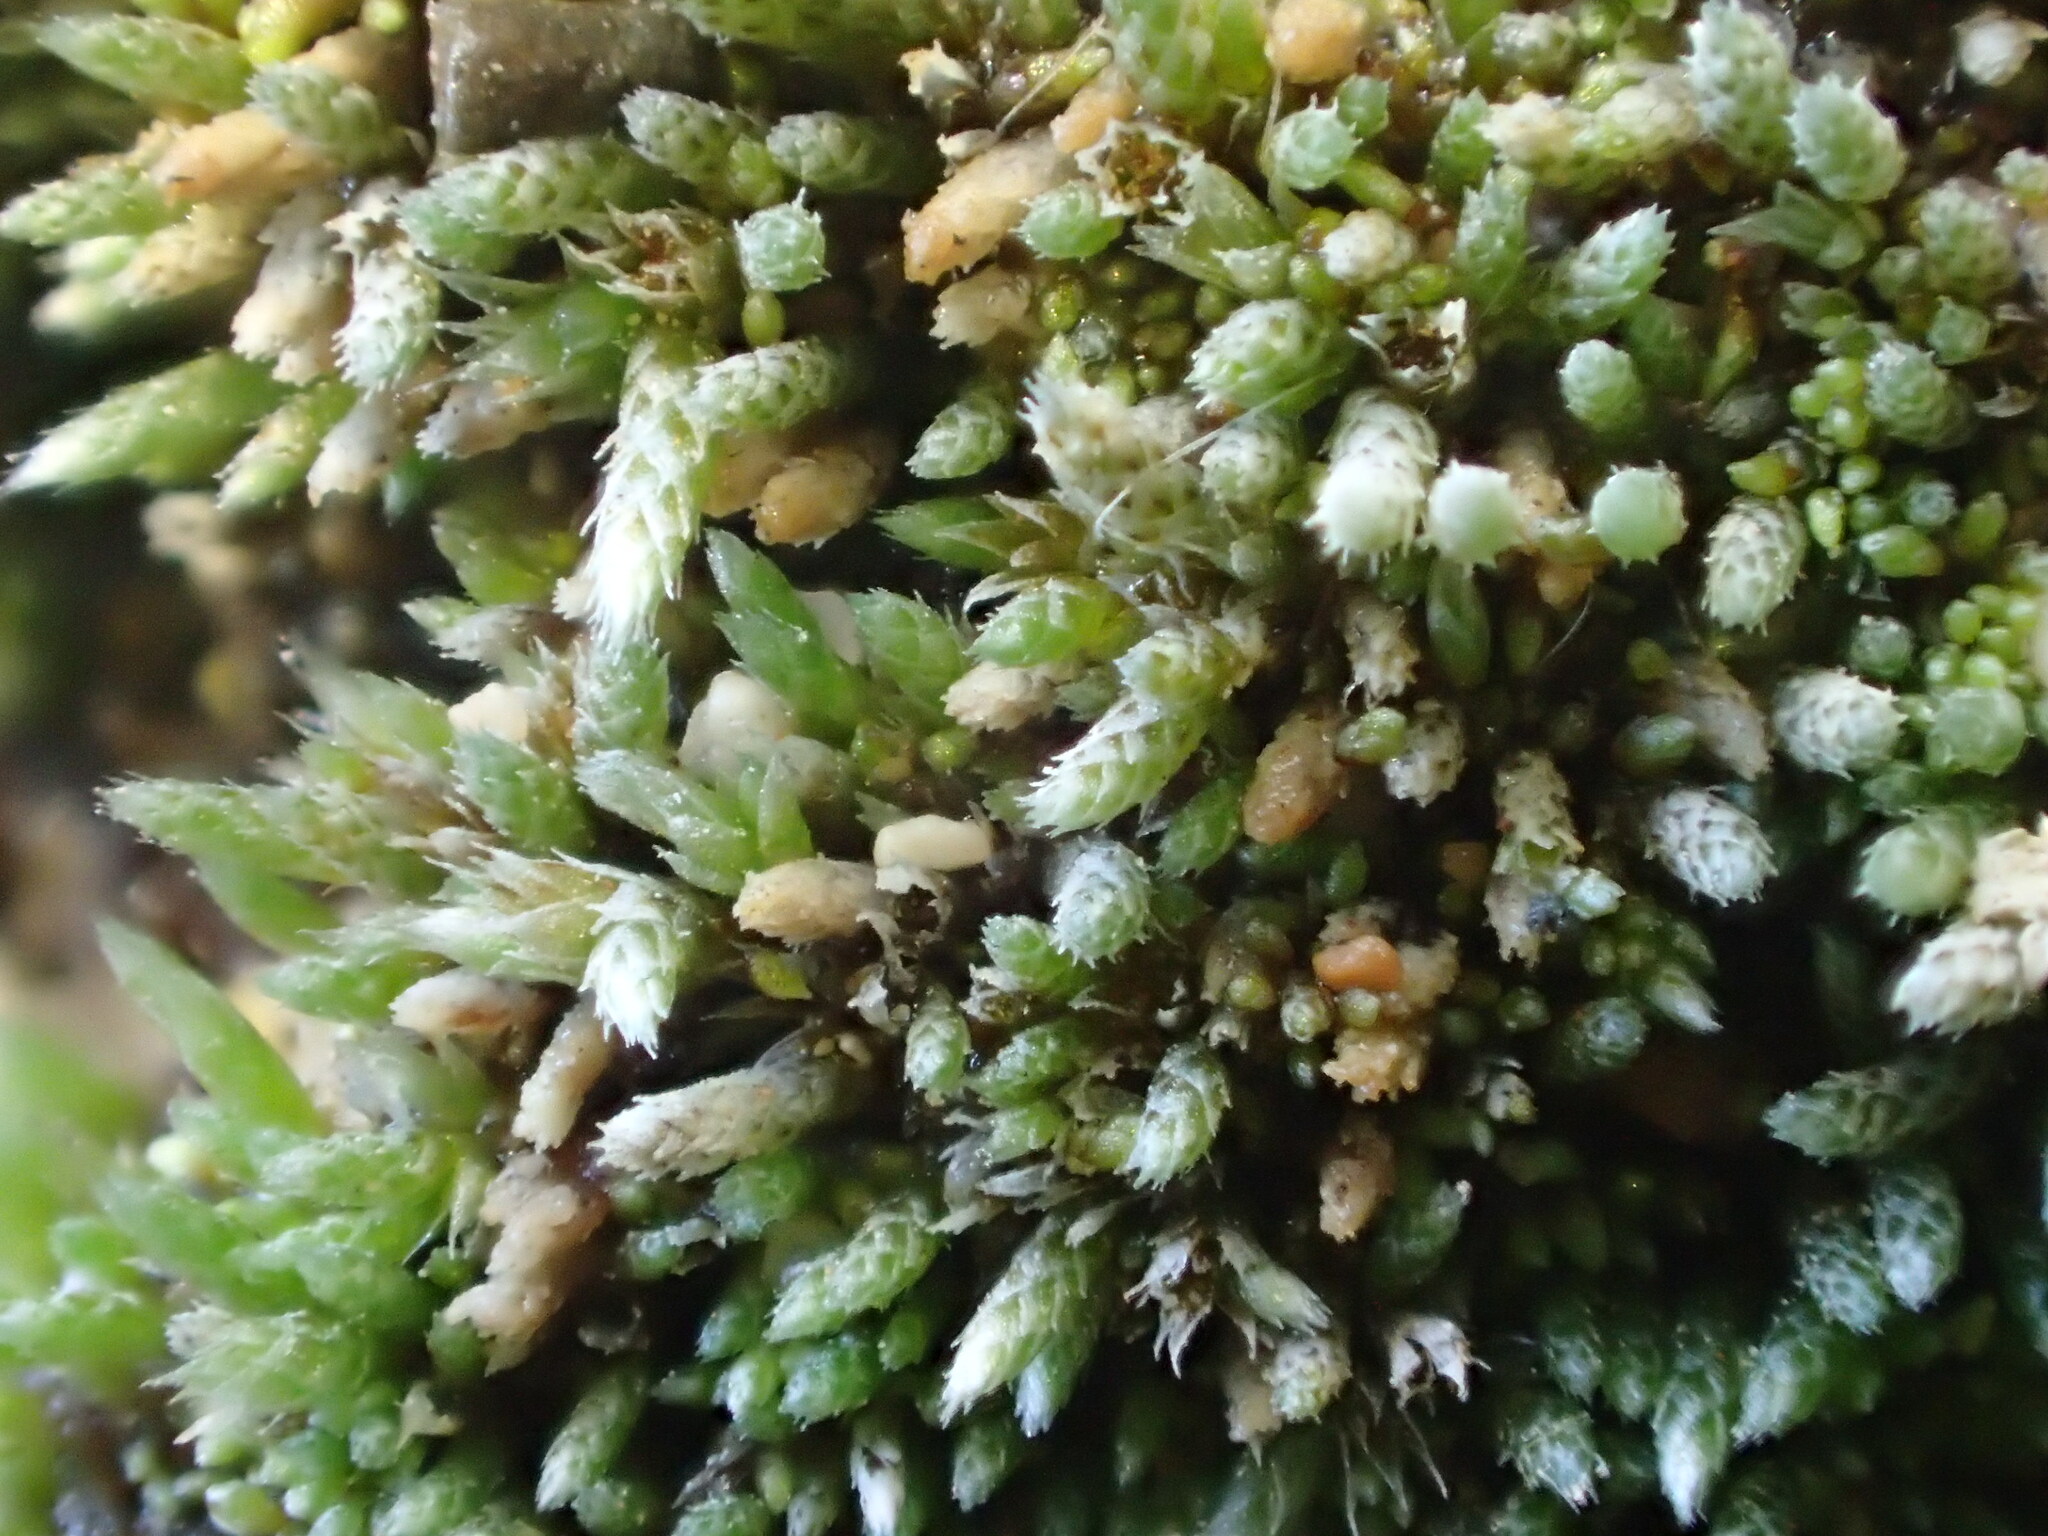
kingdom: Plantae
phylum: Bryophyta
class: Bryopsida
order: Bryales
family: Bryaceae
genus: Bryum
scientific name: Bryum argenteum
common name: Silver-moss
